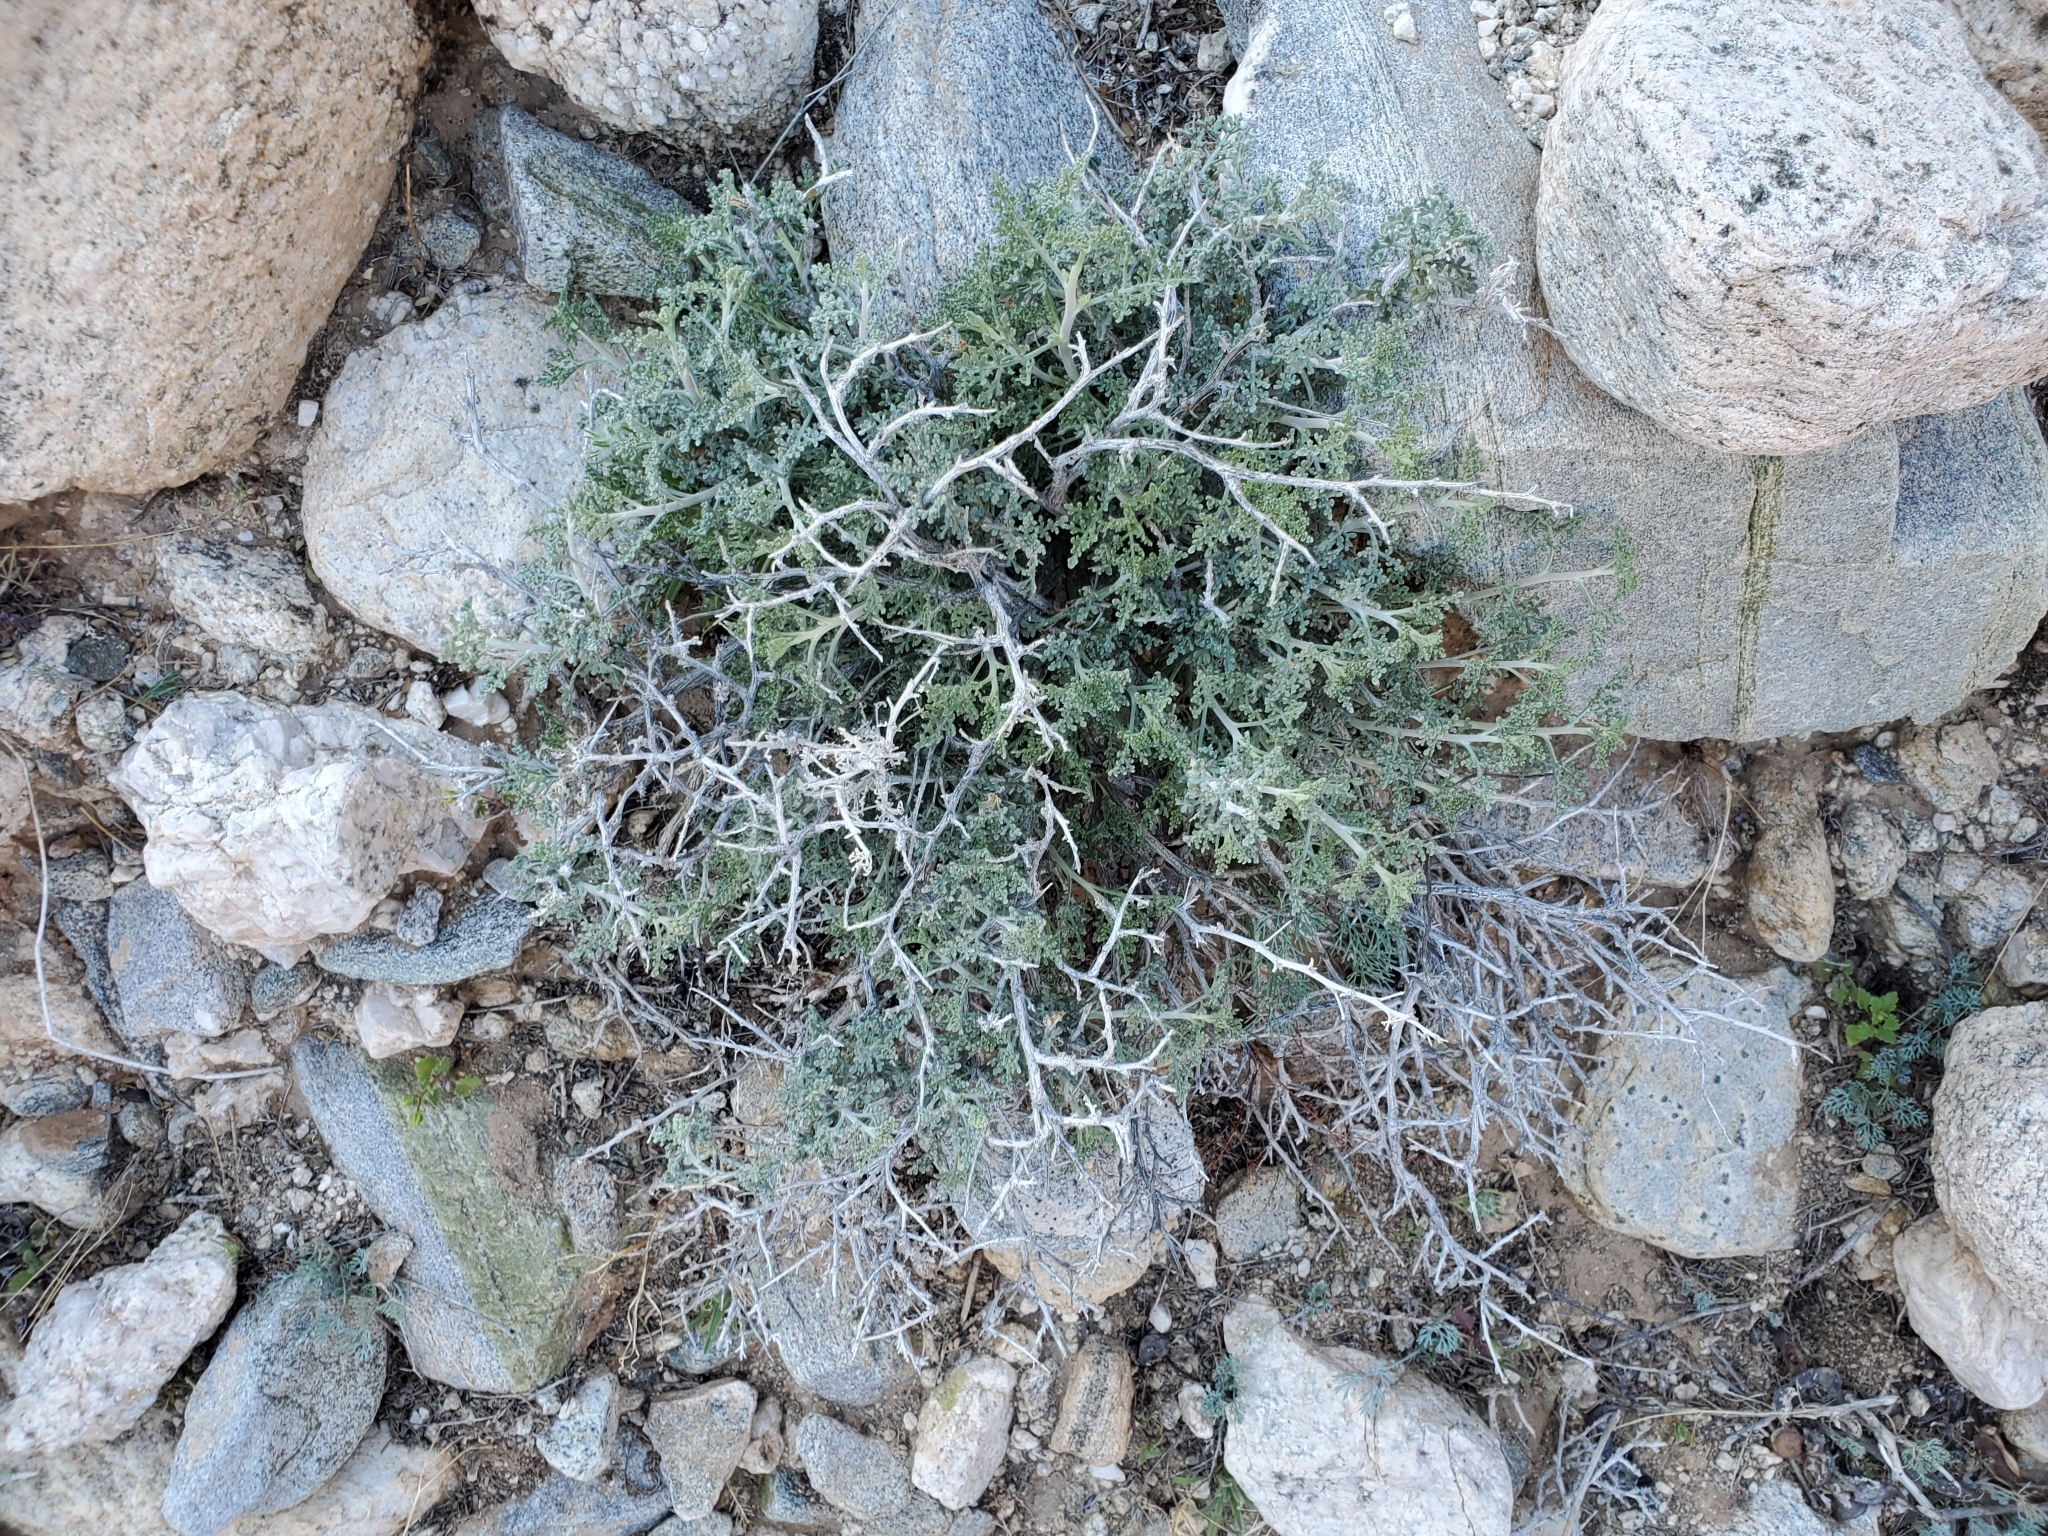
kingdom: Plantae
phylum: Tracheophyta
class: Magnoliopsida
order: Asterales
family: Asteraceae
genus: Ambrosia
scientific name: Ambrosia dumosa
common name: Bur-sage
